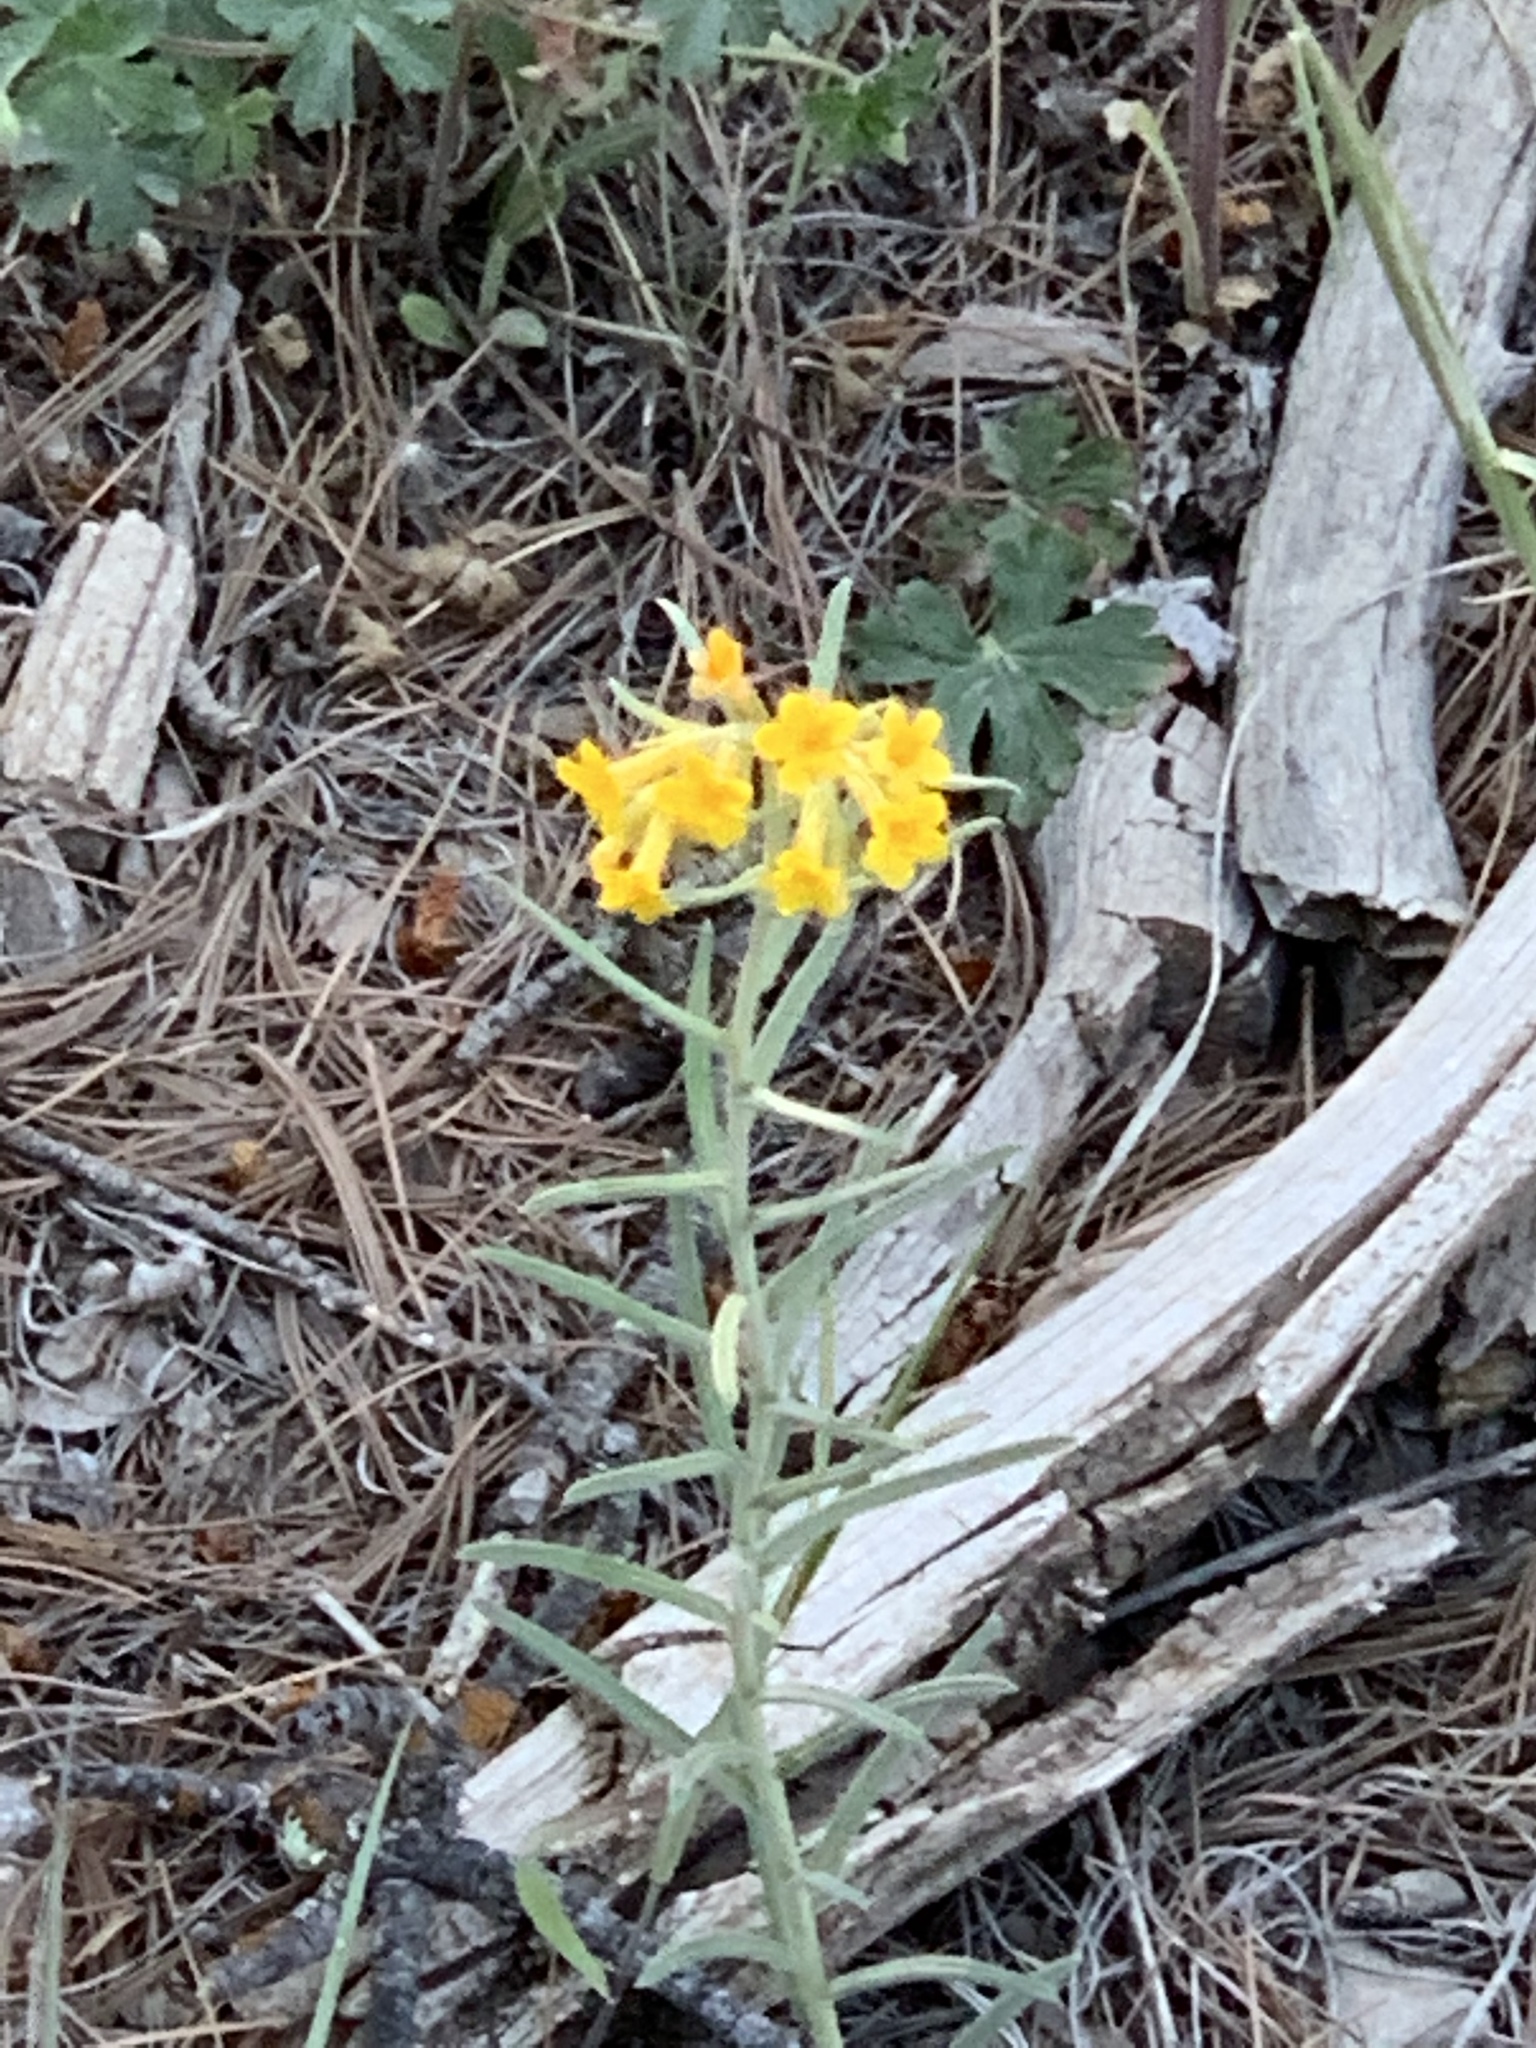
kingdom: Plantae
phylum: Tracheophyta
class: Magnoliopsida
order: Boraginales
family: Boraginaceae
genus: Lithospermum
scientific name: Lithospermum multiflorum
